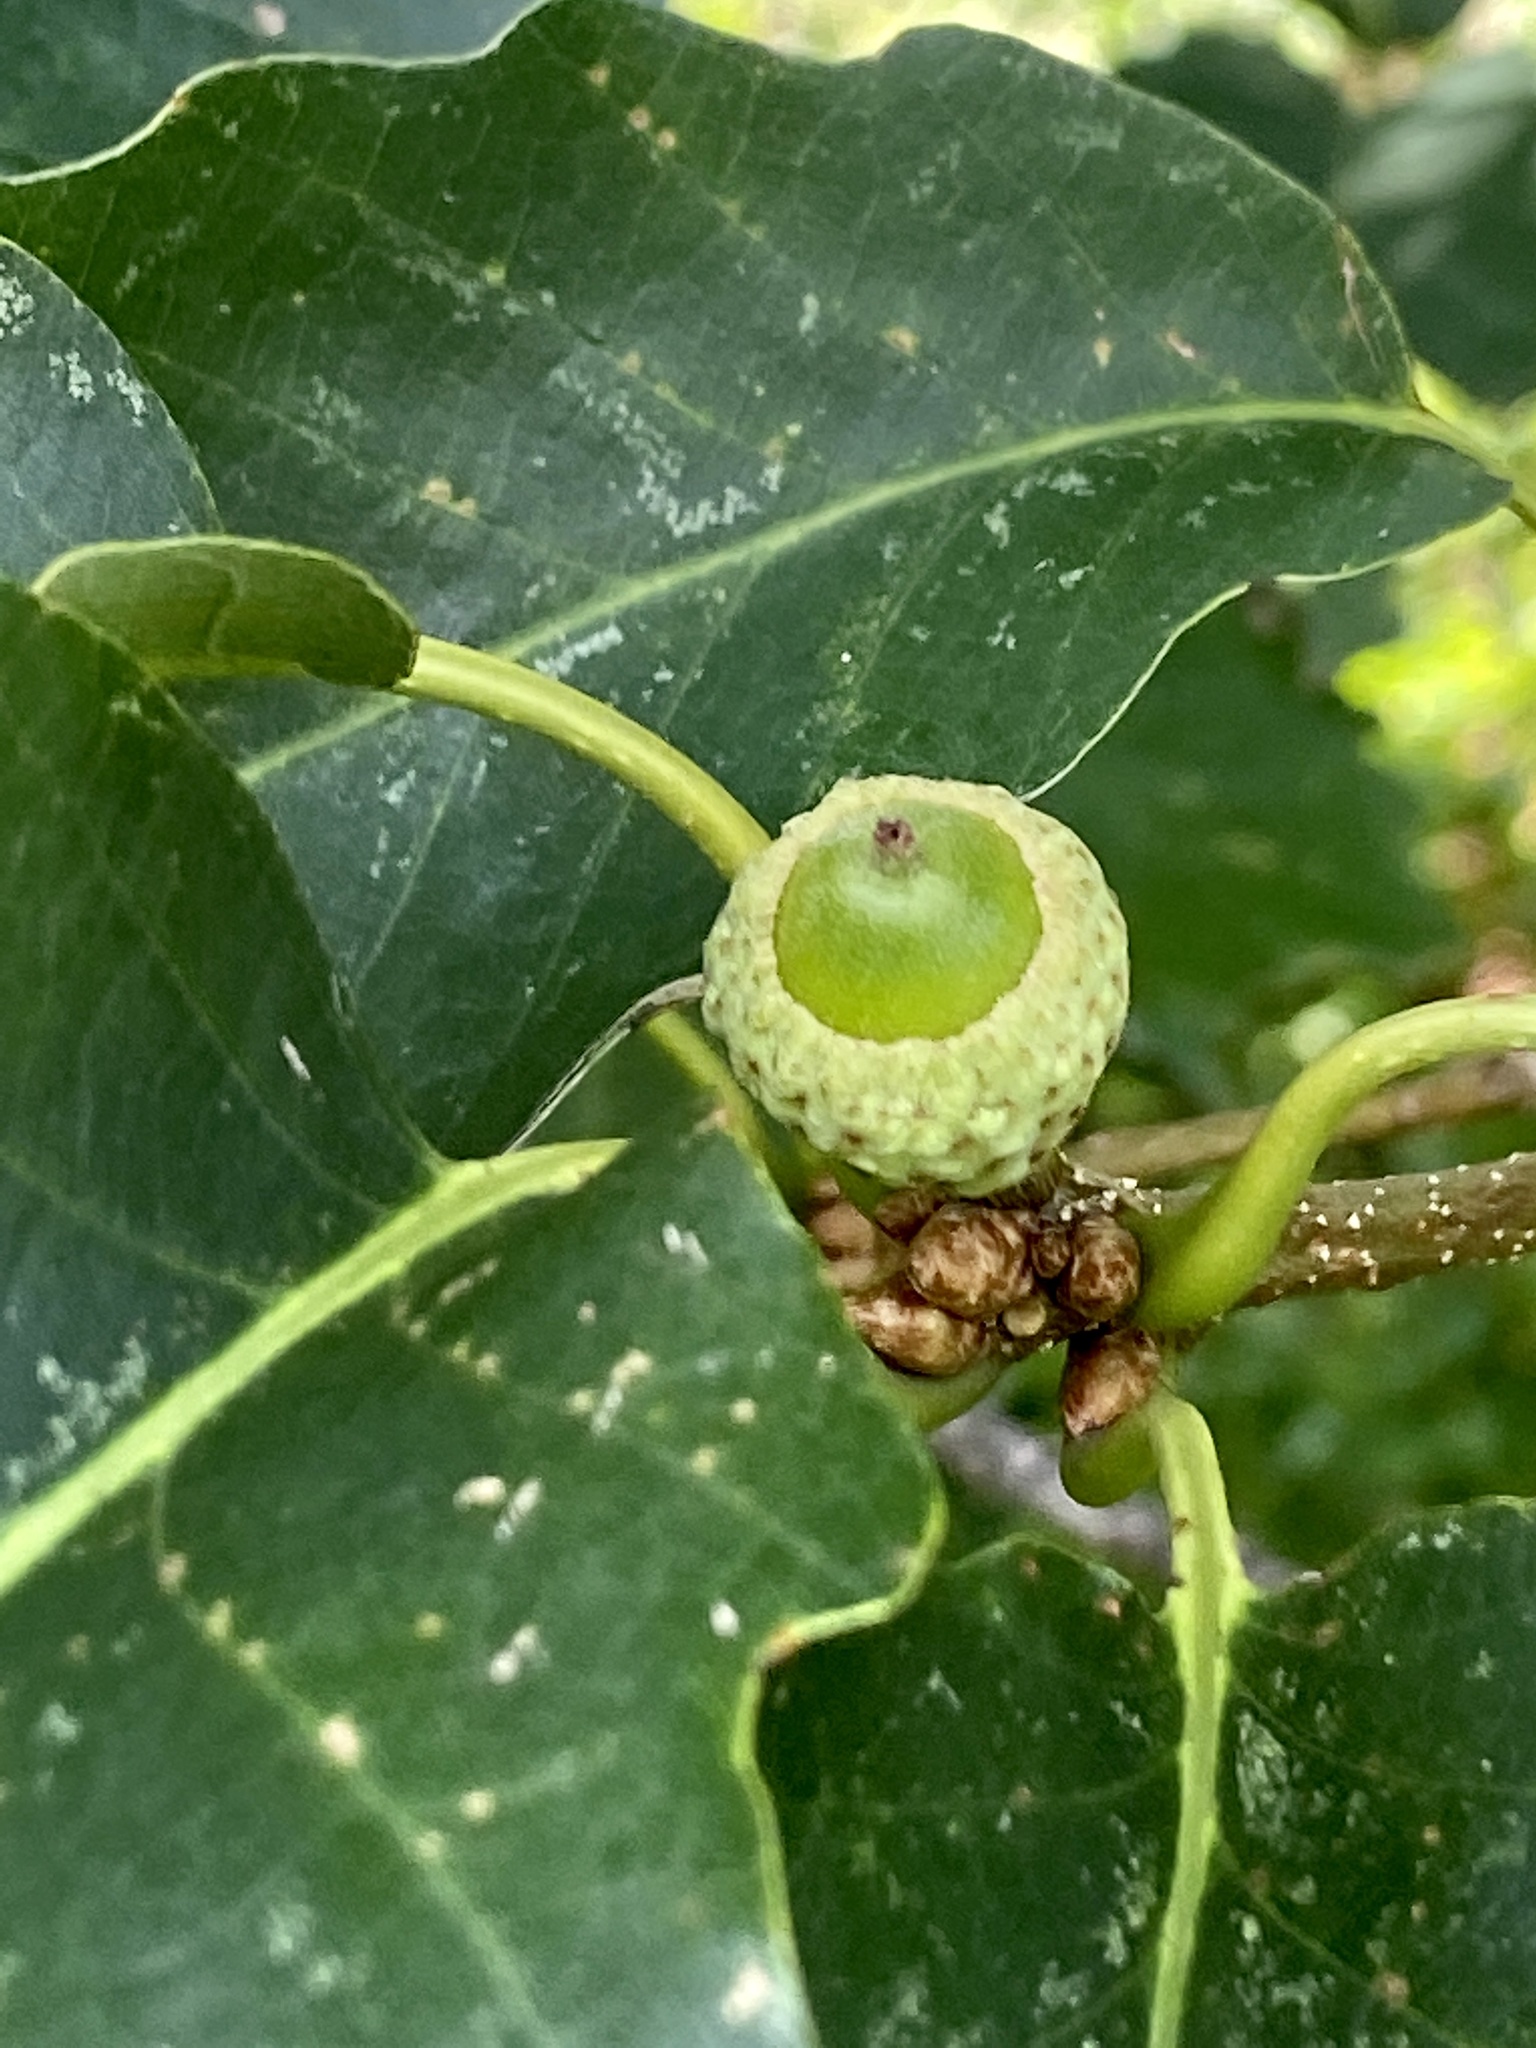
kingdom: Plantae
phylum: Tracheophyta
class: Magnoliopsida
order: Fagales
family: Fagaceae
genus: Quercus
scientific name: Quercus montana
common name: Chestnut oak
